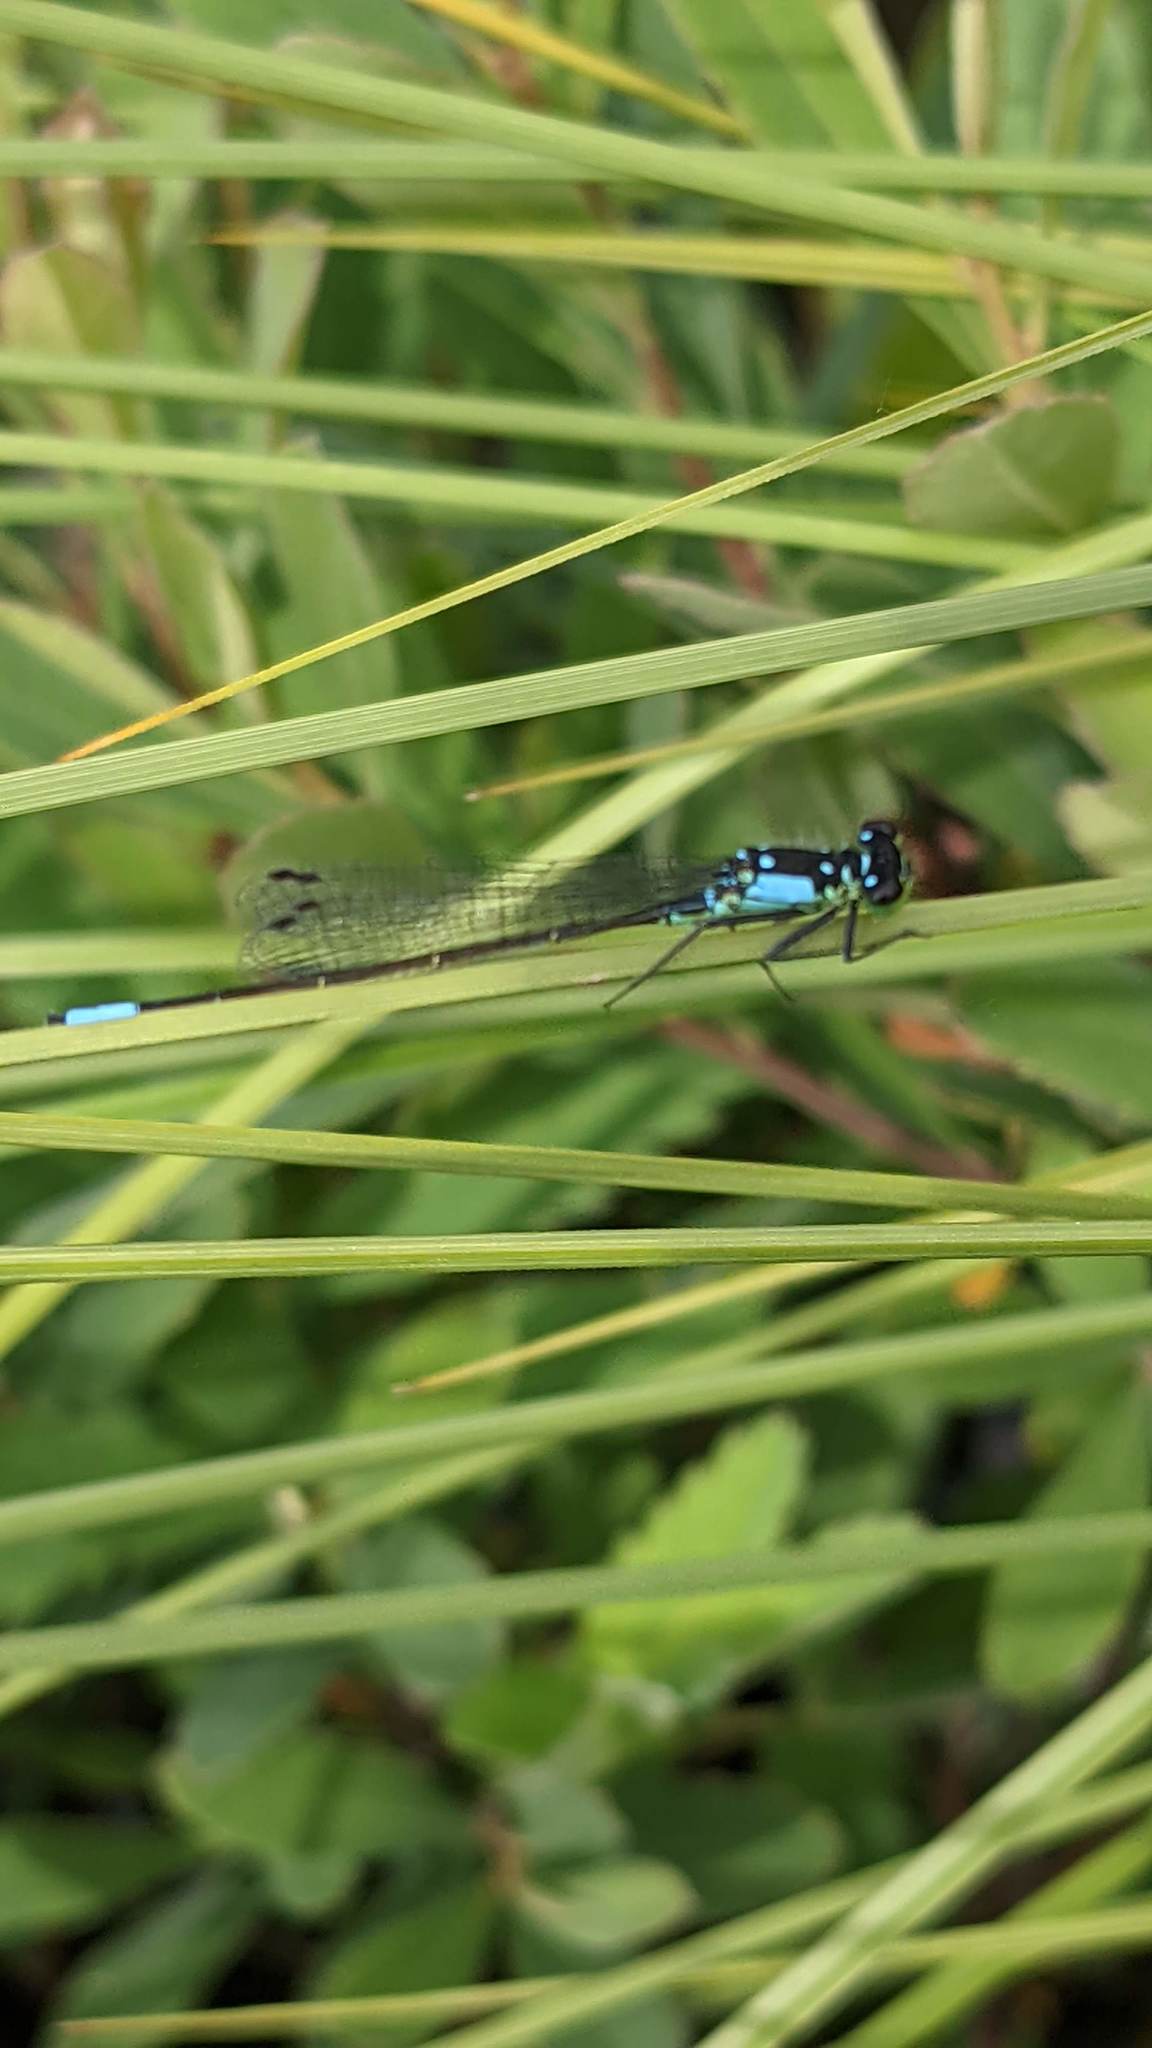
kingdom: Animalia
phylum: Arthropoda
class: Insecta
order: Odonata
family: Coenagrionidae
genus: Ischnura
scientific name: Ischnura cervula
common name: Pacific forktail
